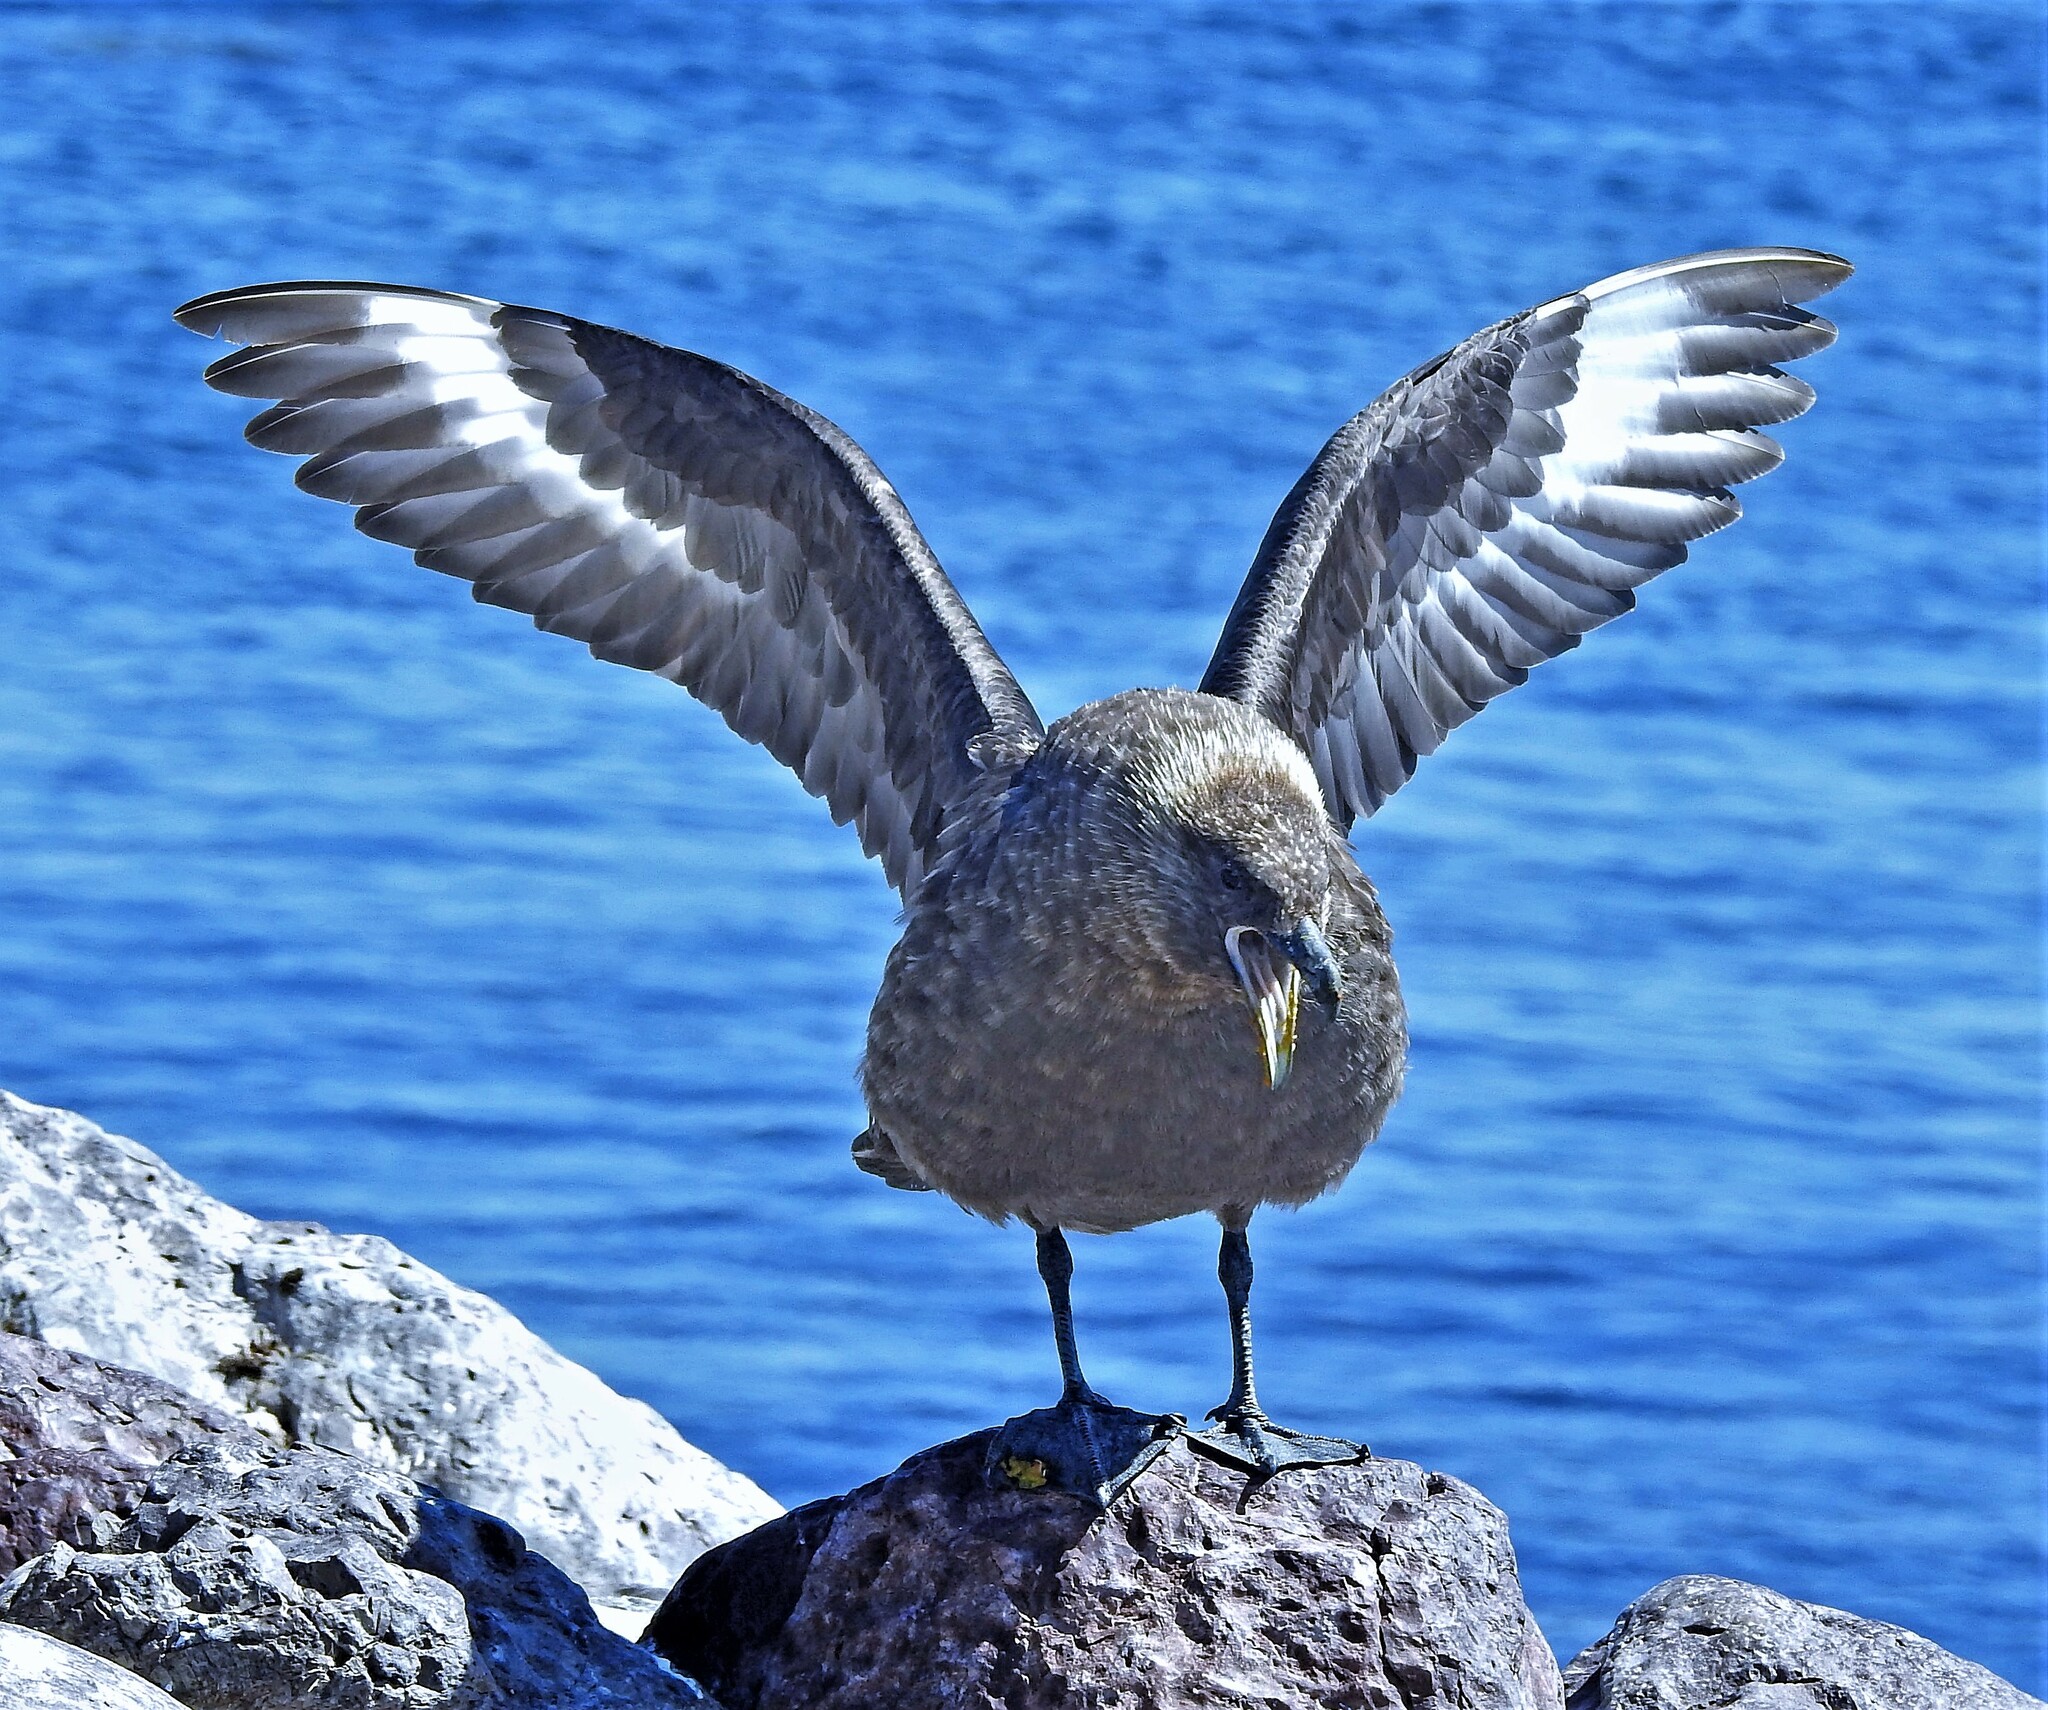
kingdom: Animalia
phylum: Chordata
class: Aves
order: Charadriiformes
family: Stercorariidae
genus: Stercorarius
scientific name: Stercorarius antarcticus
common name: Brown skua
